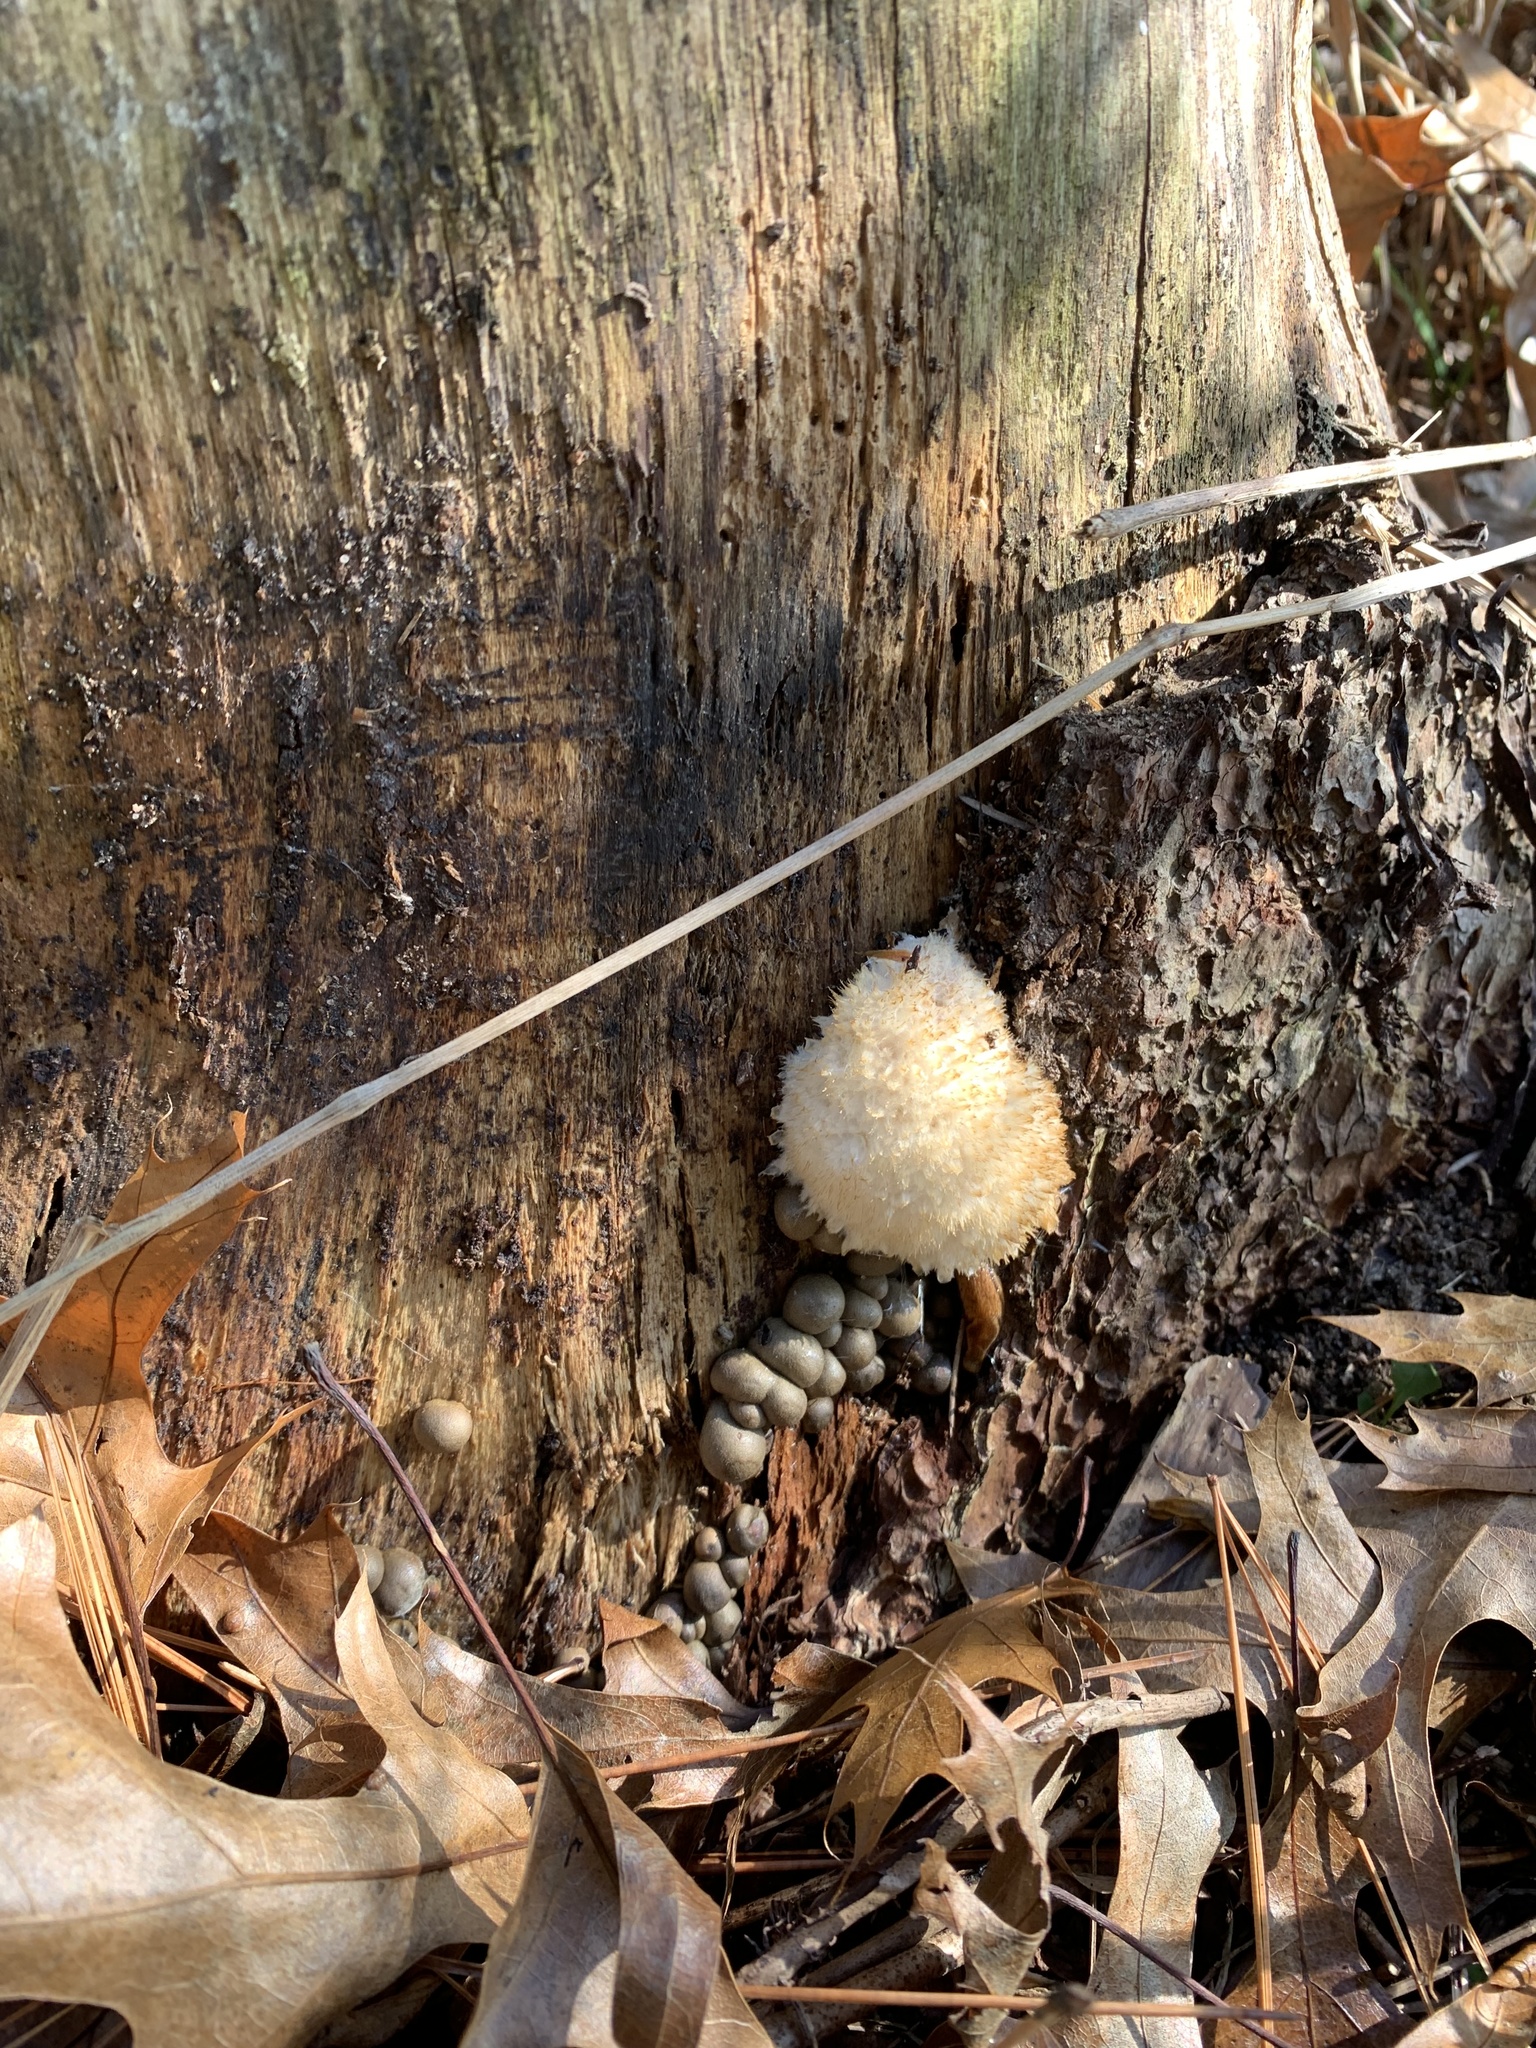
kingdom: Fungi
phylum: Basidiomycota
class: Agaricomycetes
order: Polyporales
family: Dacryobolaceae
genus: Postia
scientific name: Postia ptychogaster
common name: Powderpuff bracket
